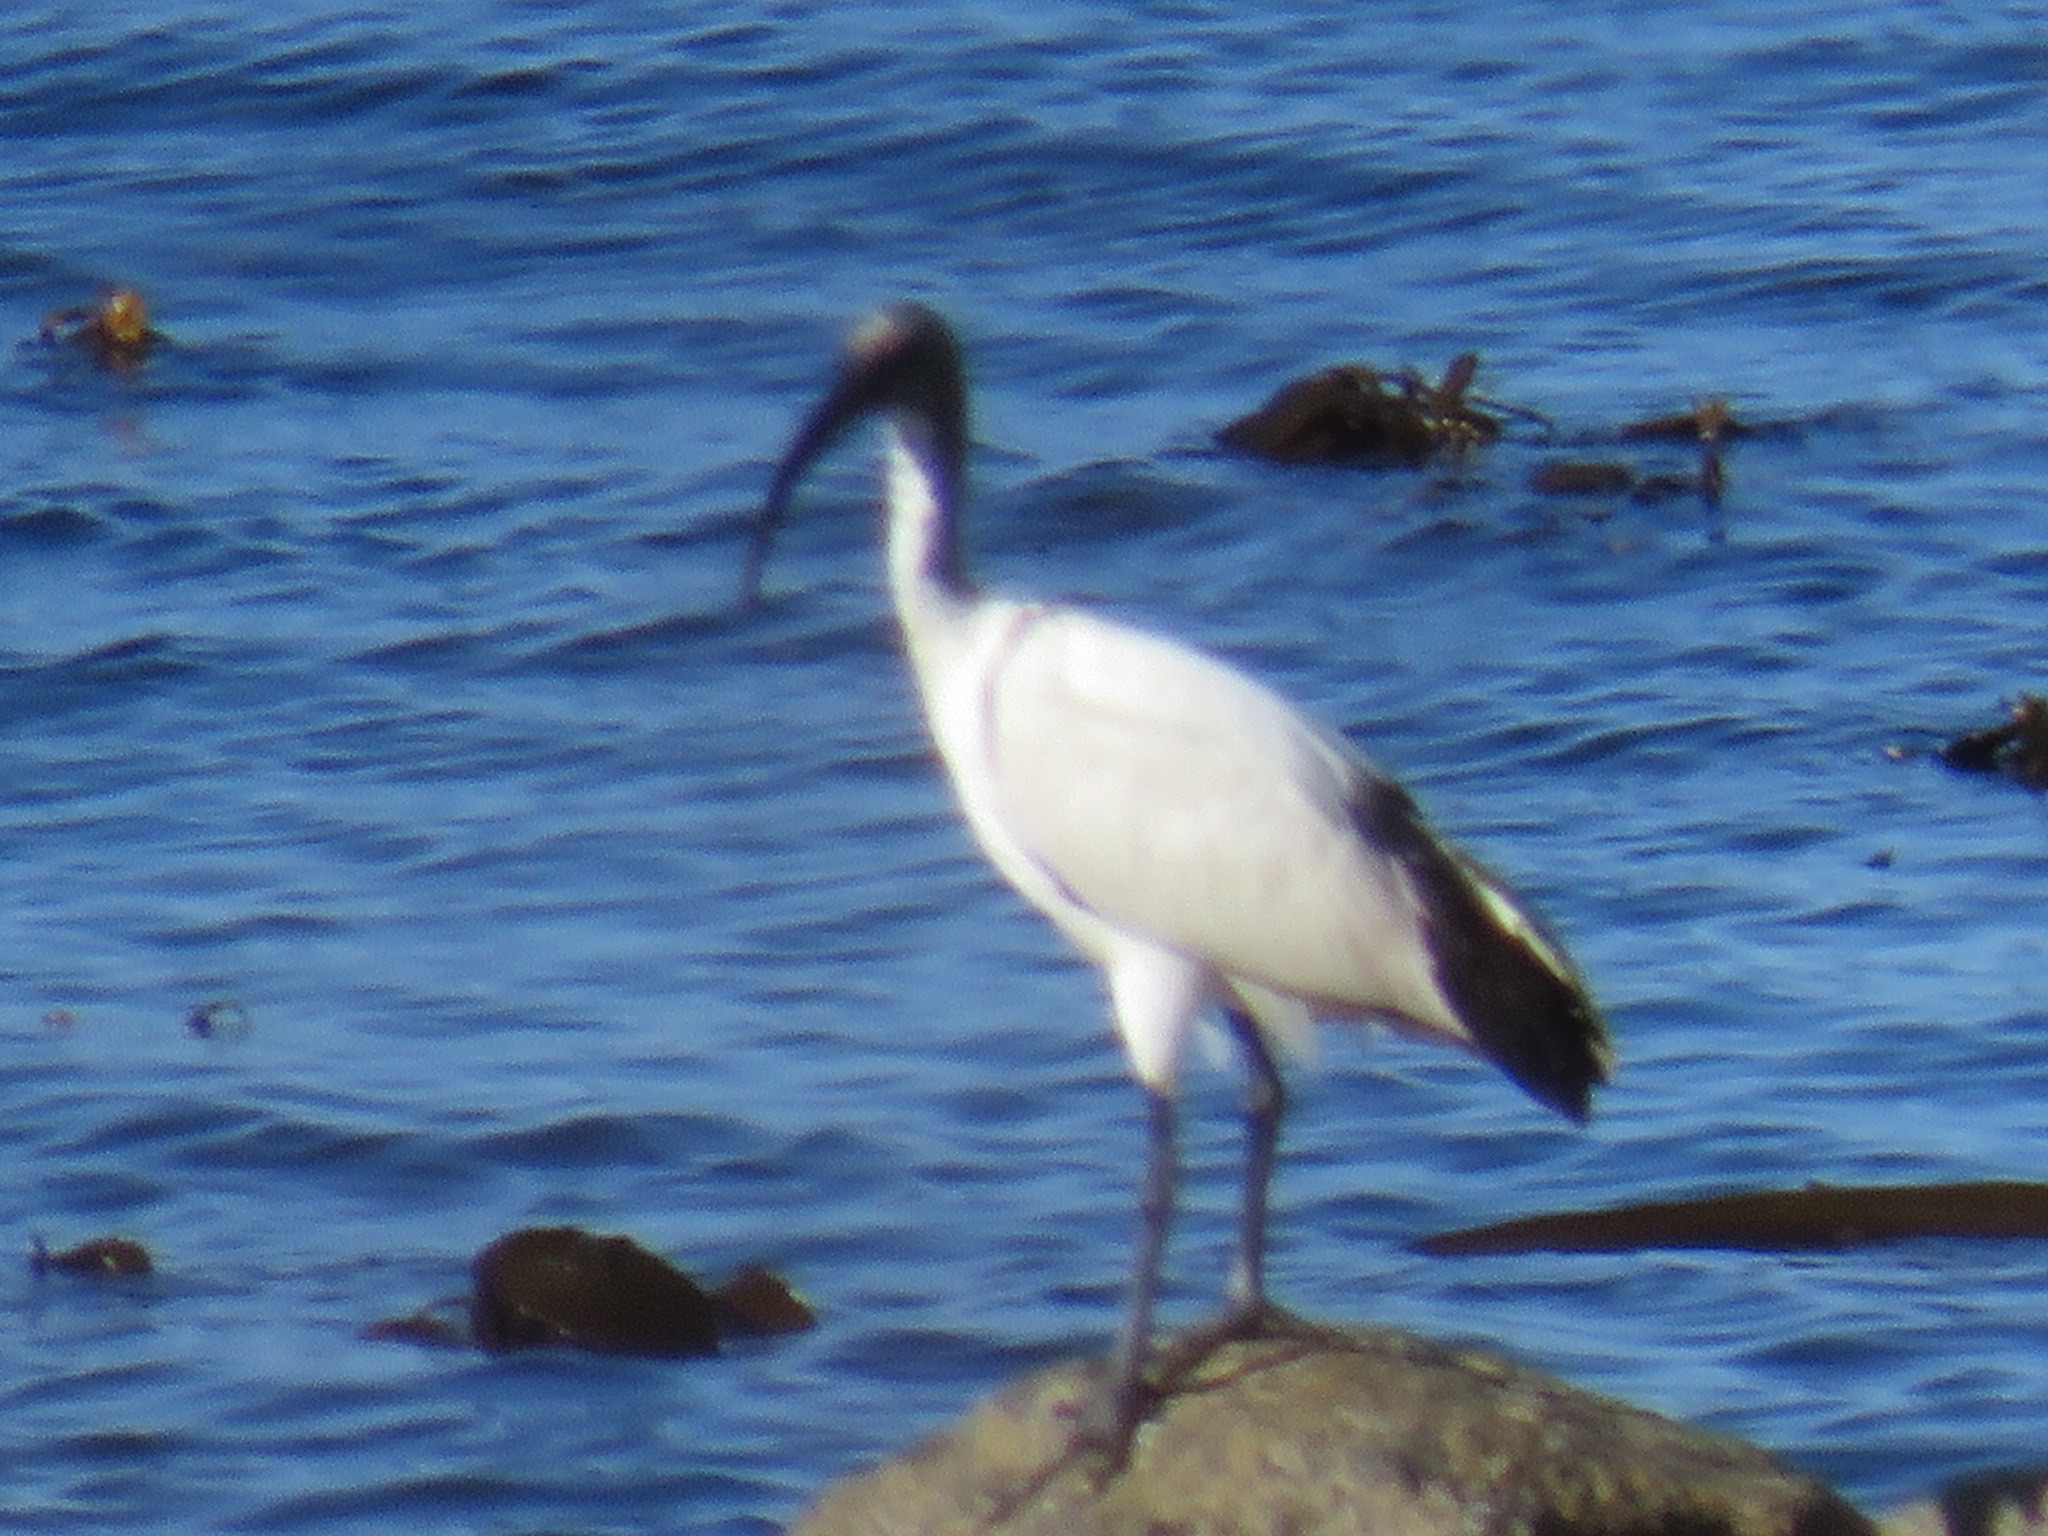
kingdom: Animalia
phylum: Chordata
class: Aves
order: Pelecaniformes
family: Threskiornithidae
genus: Threskiornis
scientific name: Threskiornis aethiopicus
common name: Sacred ibis
